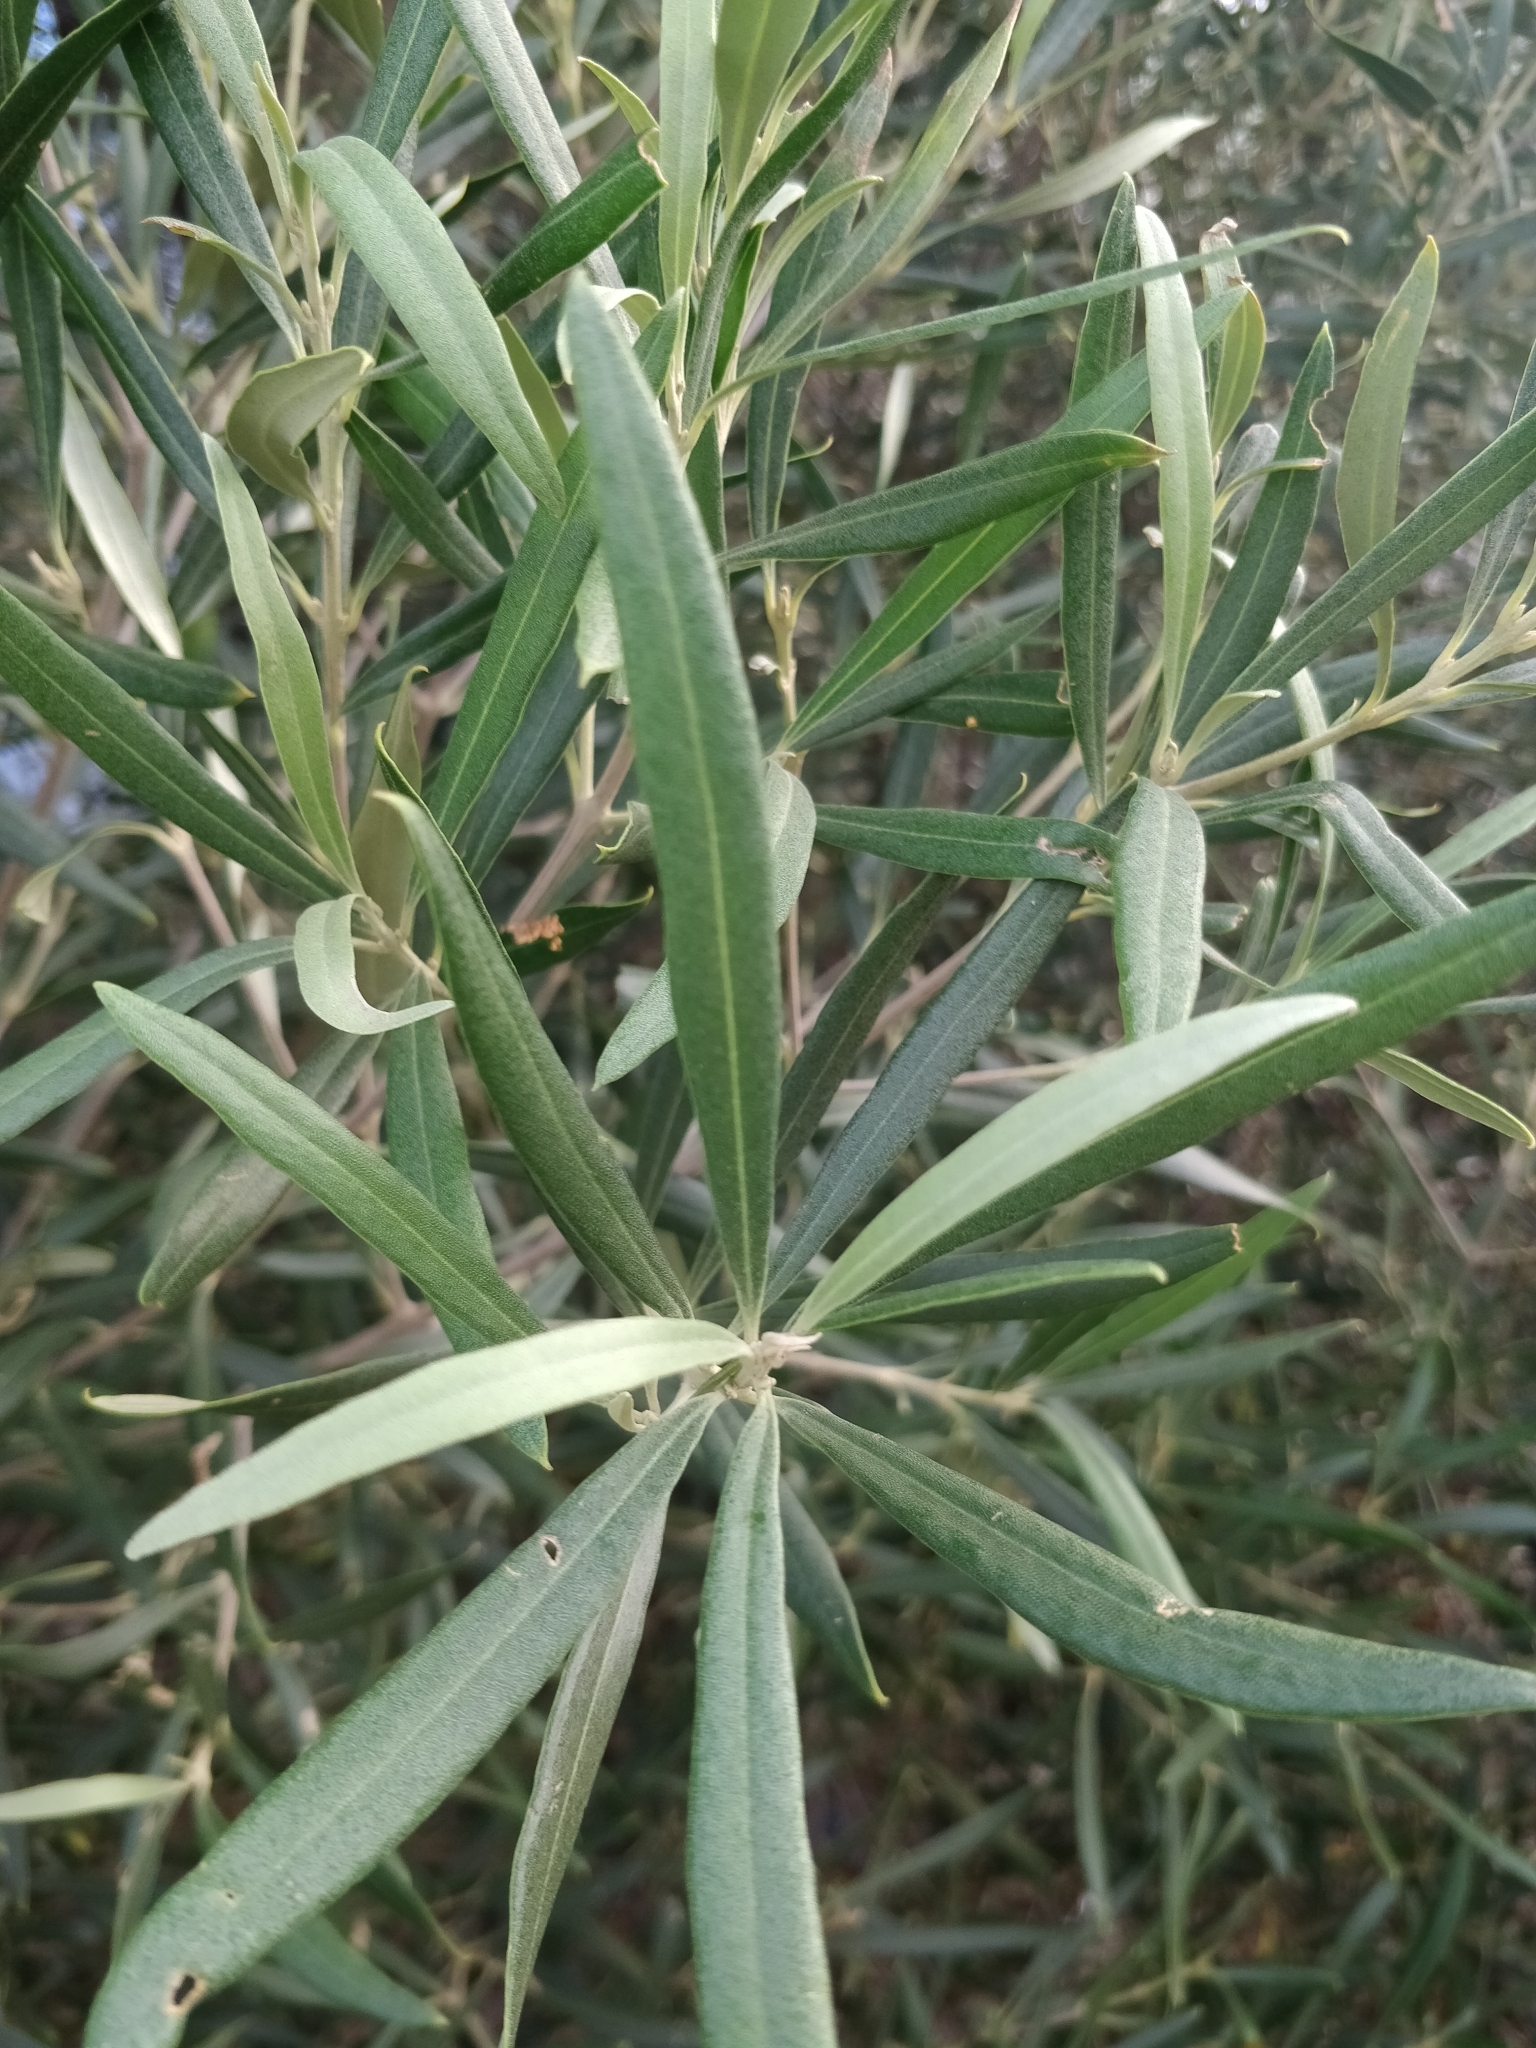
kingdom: Plantae
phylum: Tracheophyta
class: Magnoliopsida
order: Lamiales
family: Oleaceae
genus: Olea
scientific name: Olea europaea
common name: Olive
